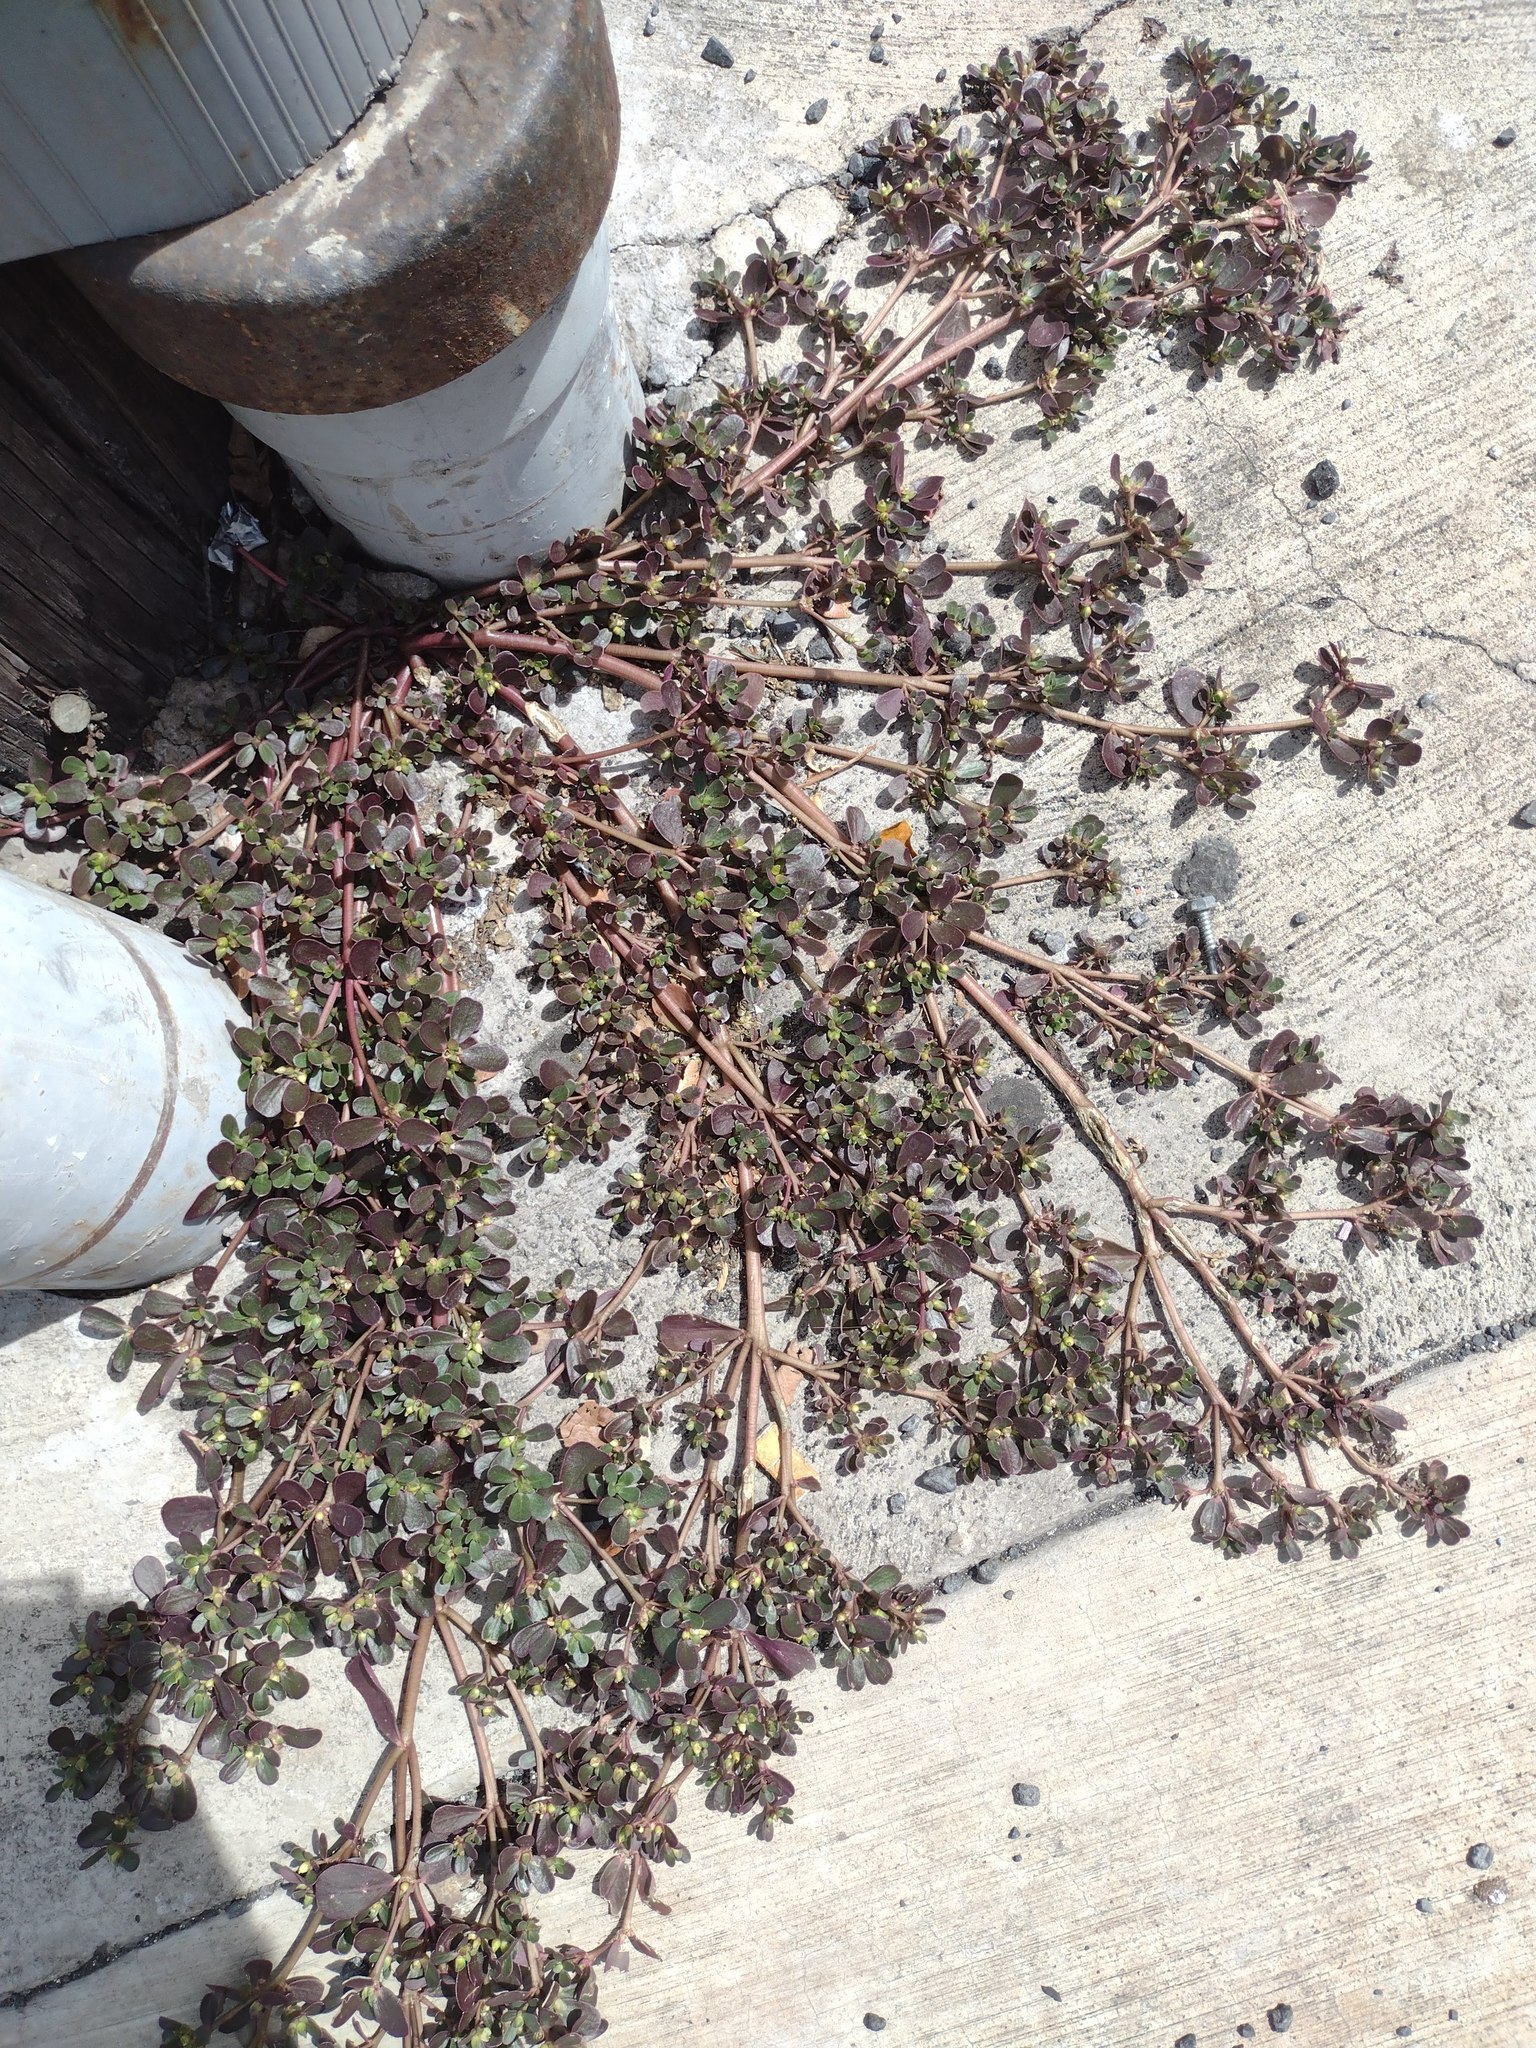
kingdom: Plantae
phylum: Tracheophyta
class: Magnoliopsida
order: Caryophyllales
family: Portulacaceae
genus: Portulaca
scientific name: Portulaca oleracea
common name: Common purslane
